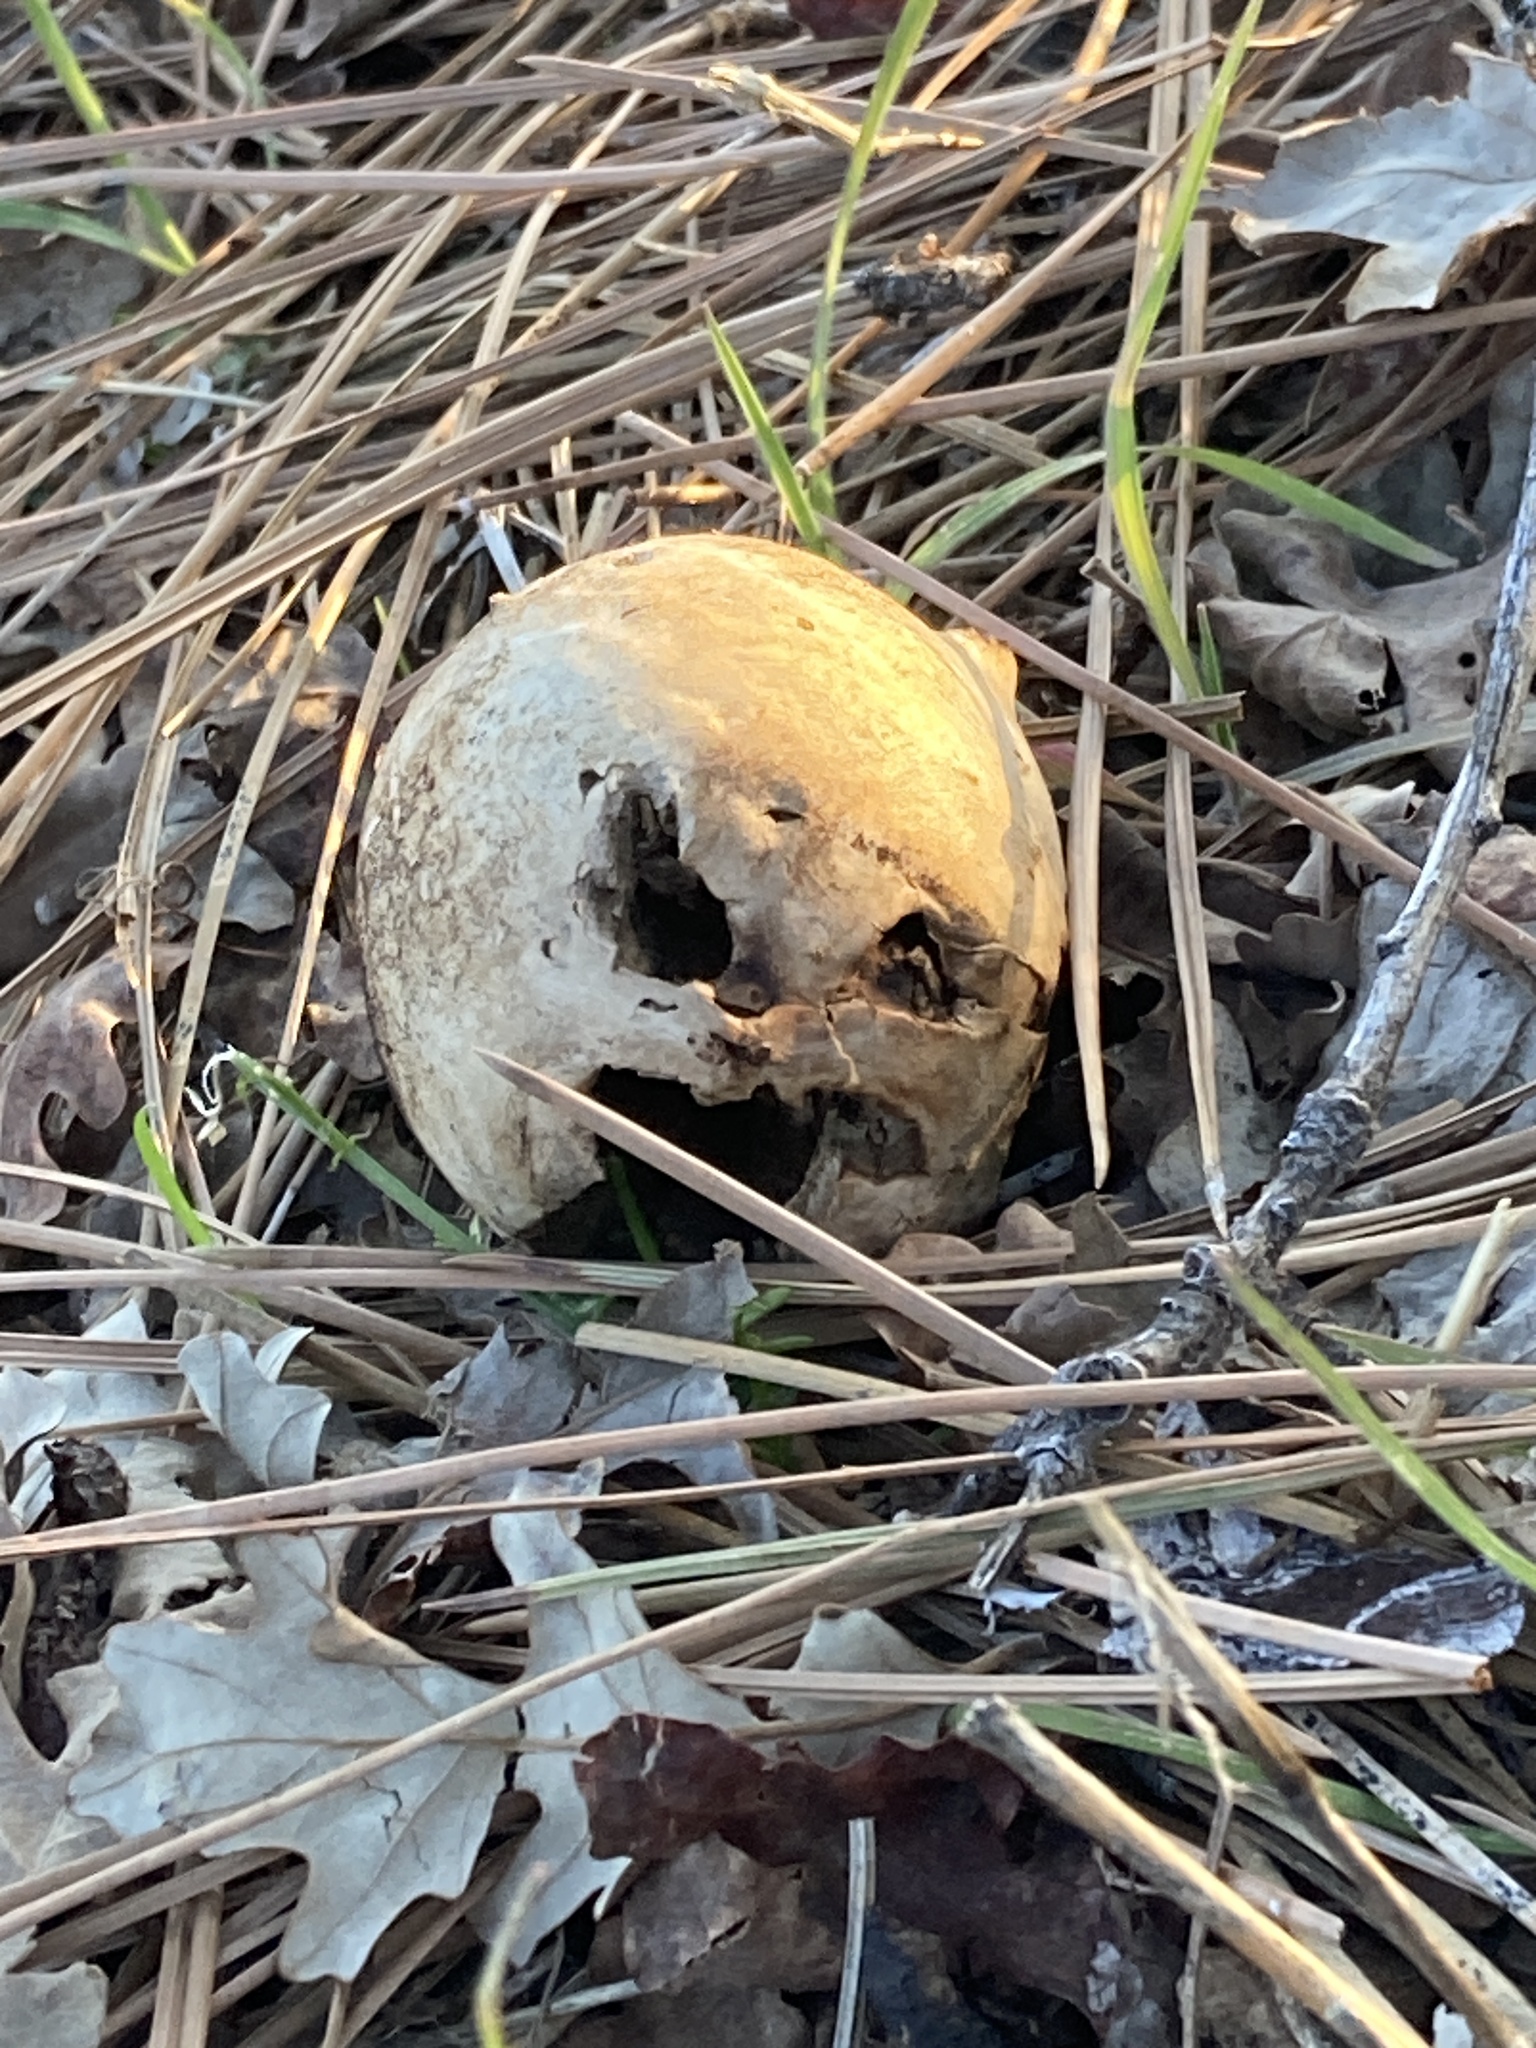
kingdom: Animalia
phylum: Arthropoda
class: Insecta
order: Hymenoptera
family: Cynipidae
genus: Andricus
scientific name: Andricus quercuscalifornicus
